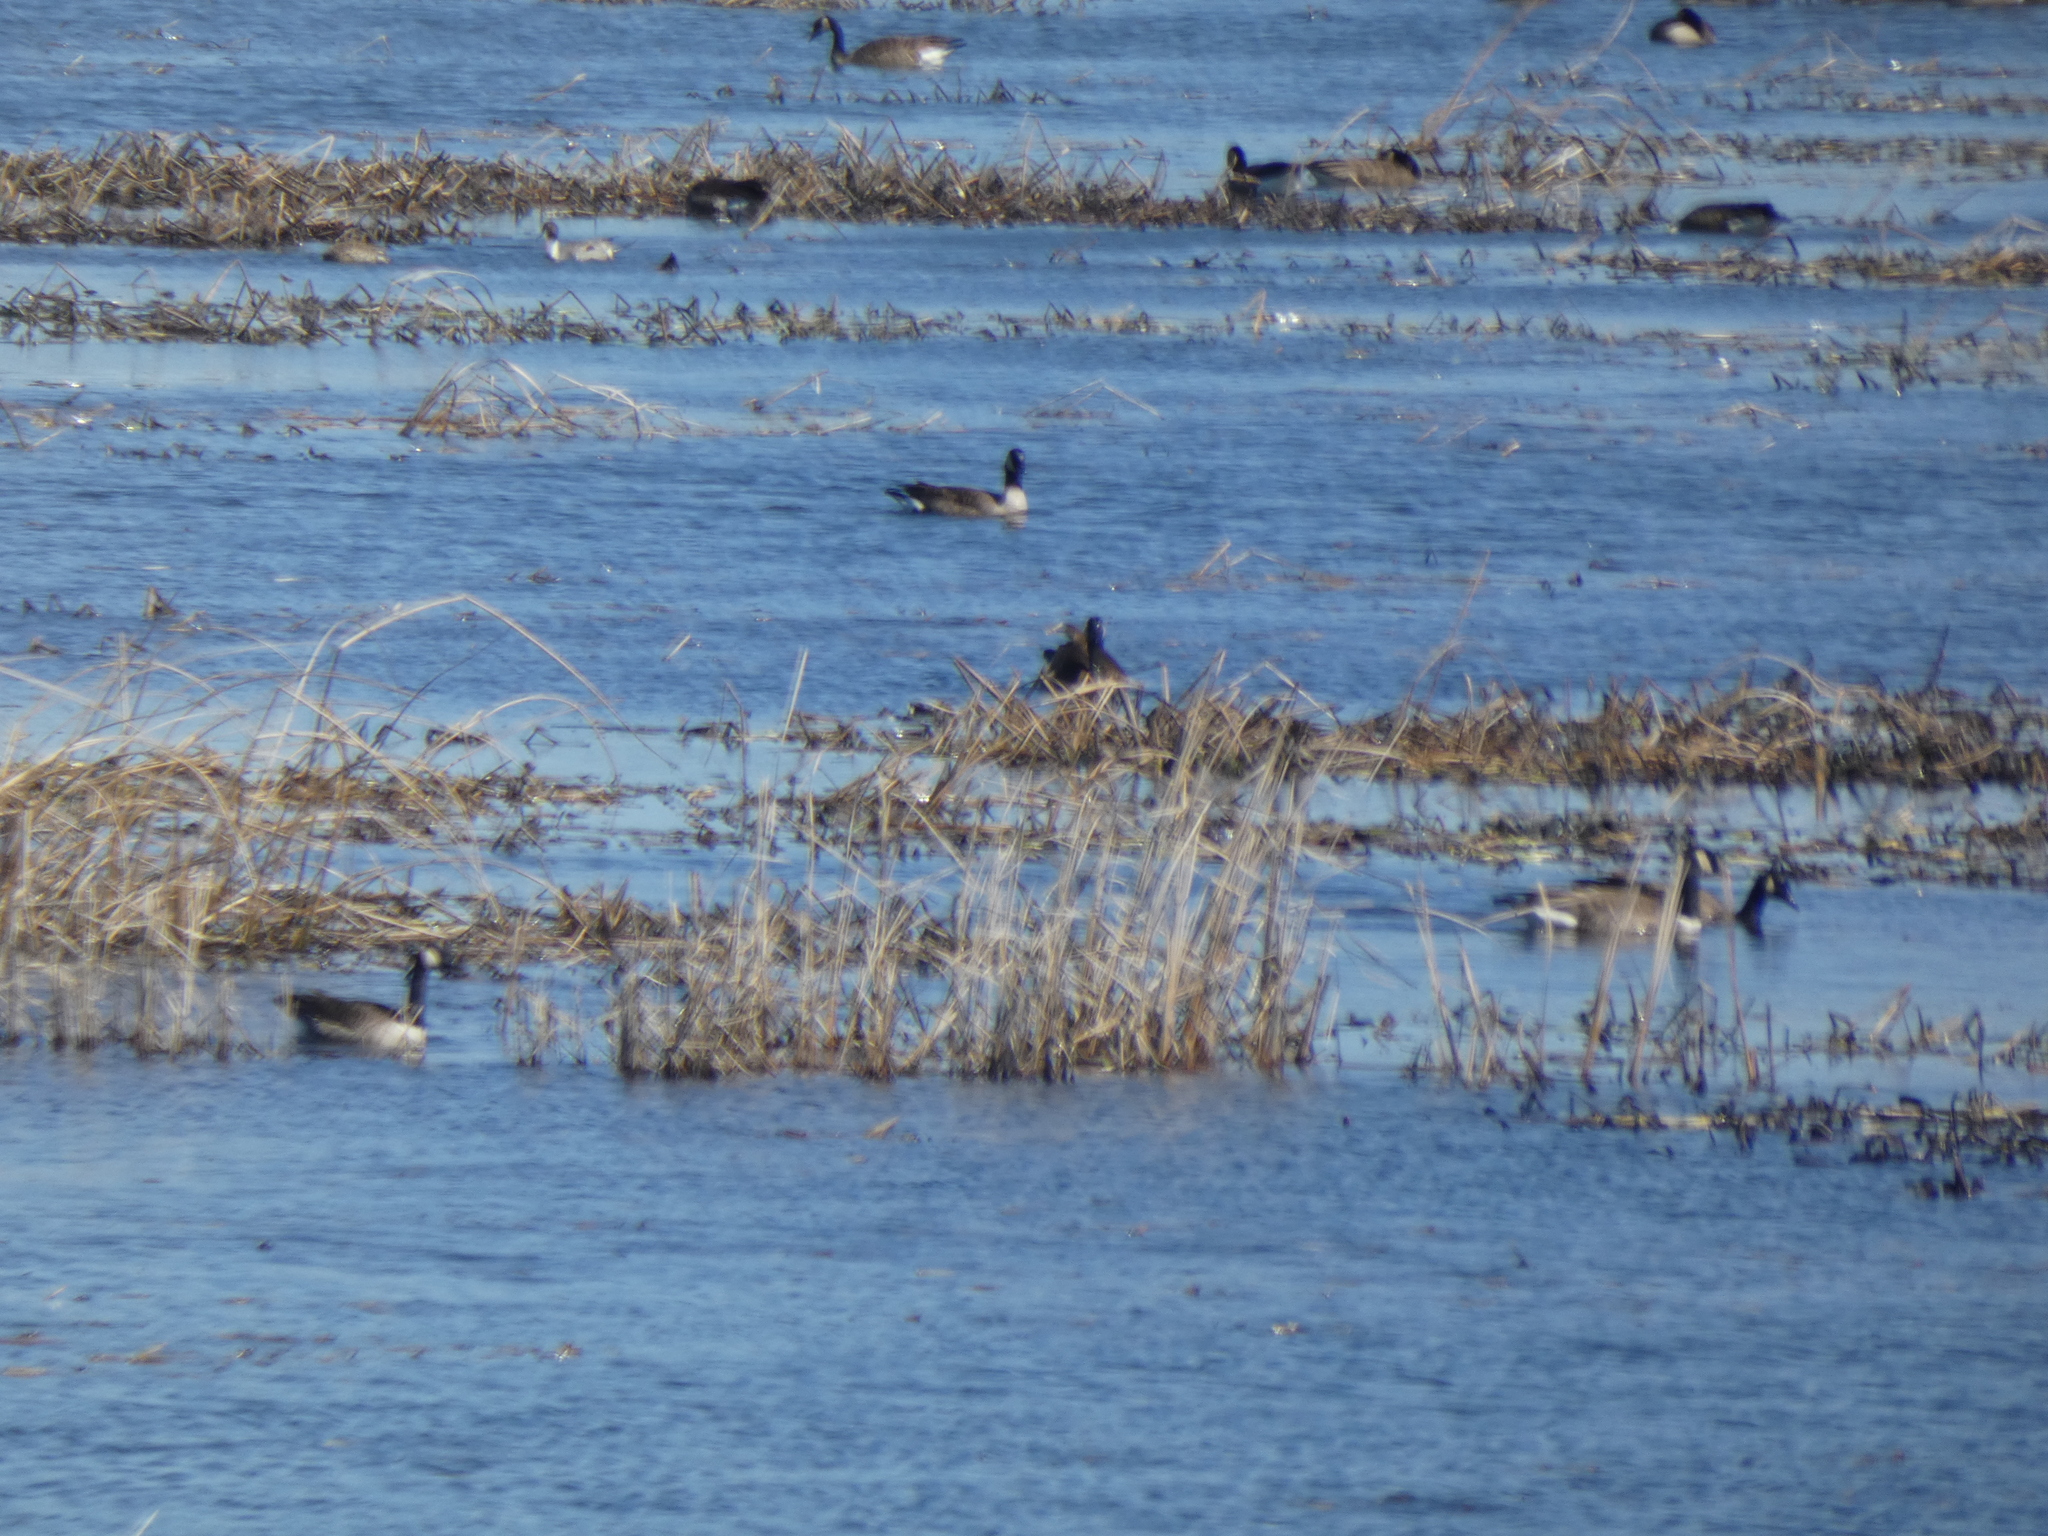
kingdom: Animalia
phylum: Chordata
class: Aves
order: Anseriformes
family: Anatidae
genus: Branta
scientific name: Branta canadensis
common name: Canada goose
